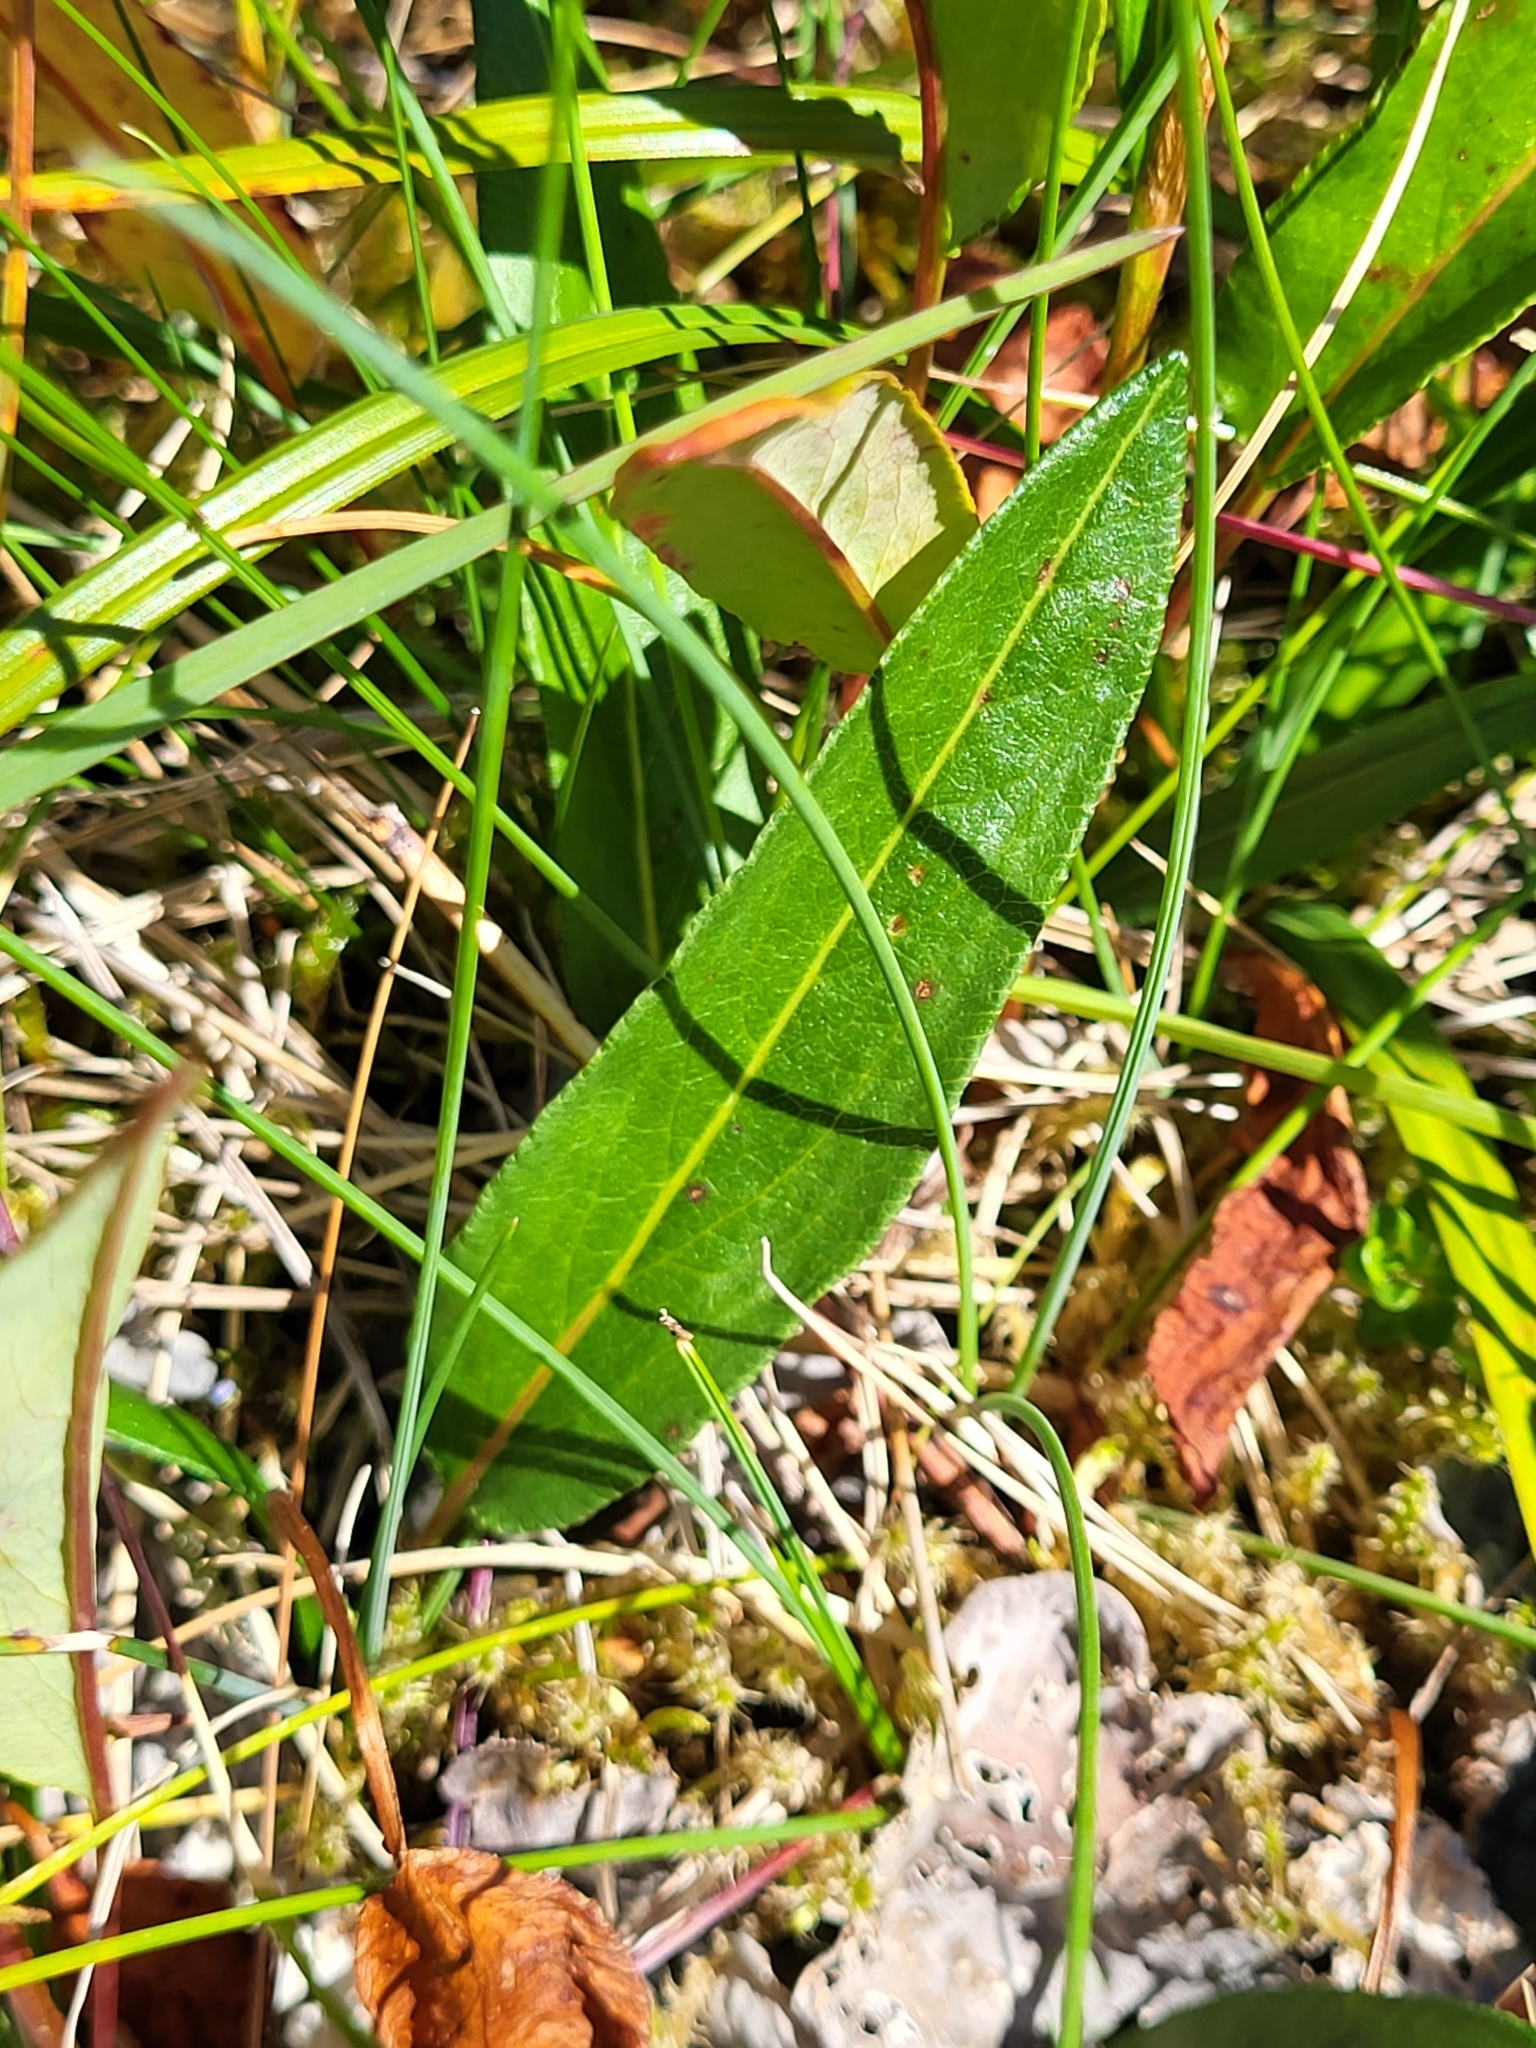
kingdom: Plantae
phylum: Tracheophyta
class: Magnoliopsida
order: Caryophyllales
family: Polygonaceae
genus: Bistorta
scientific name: Bistorta vivipara
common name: Alpine bistort
